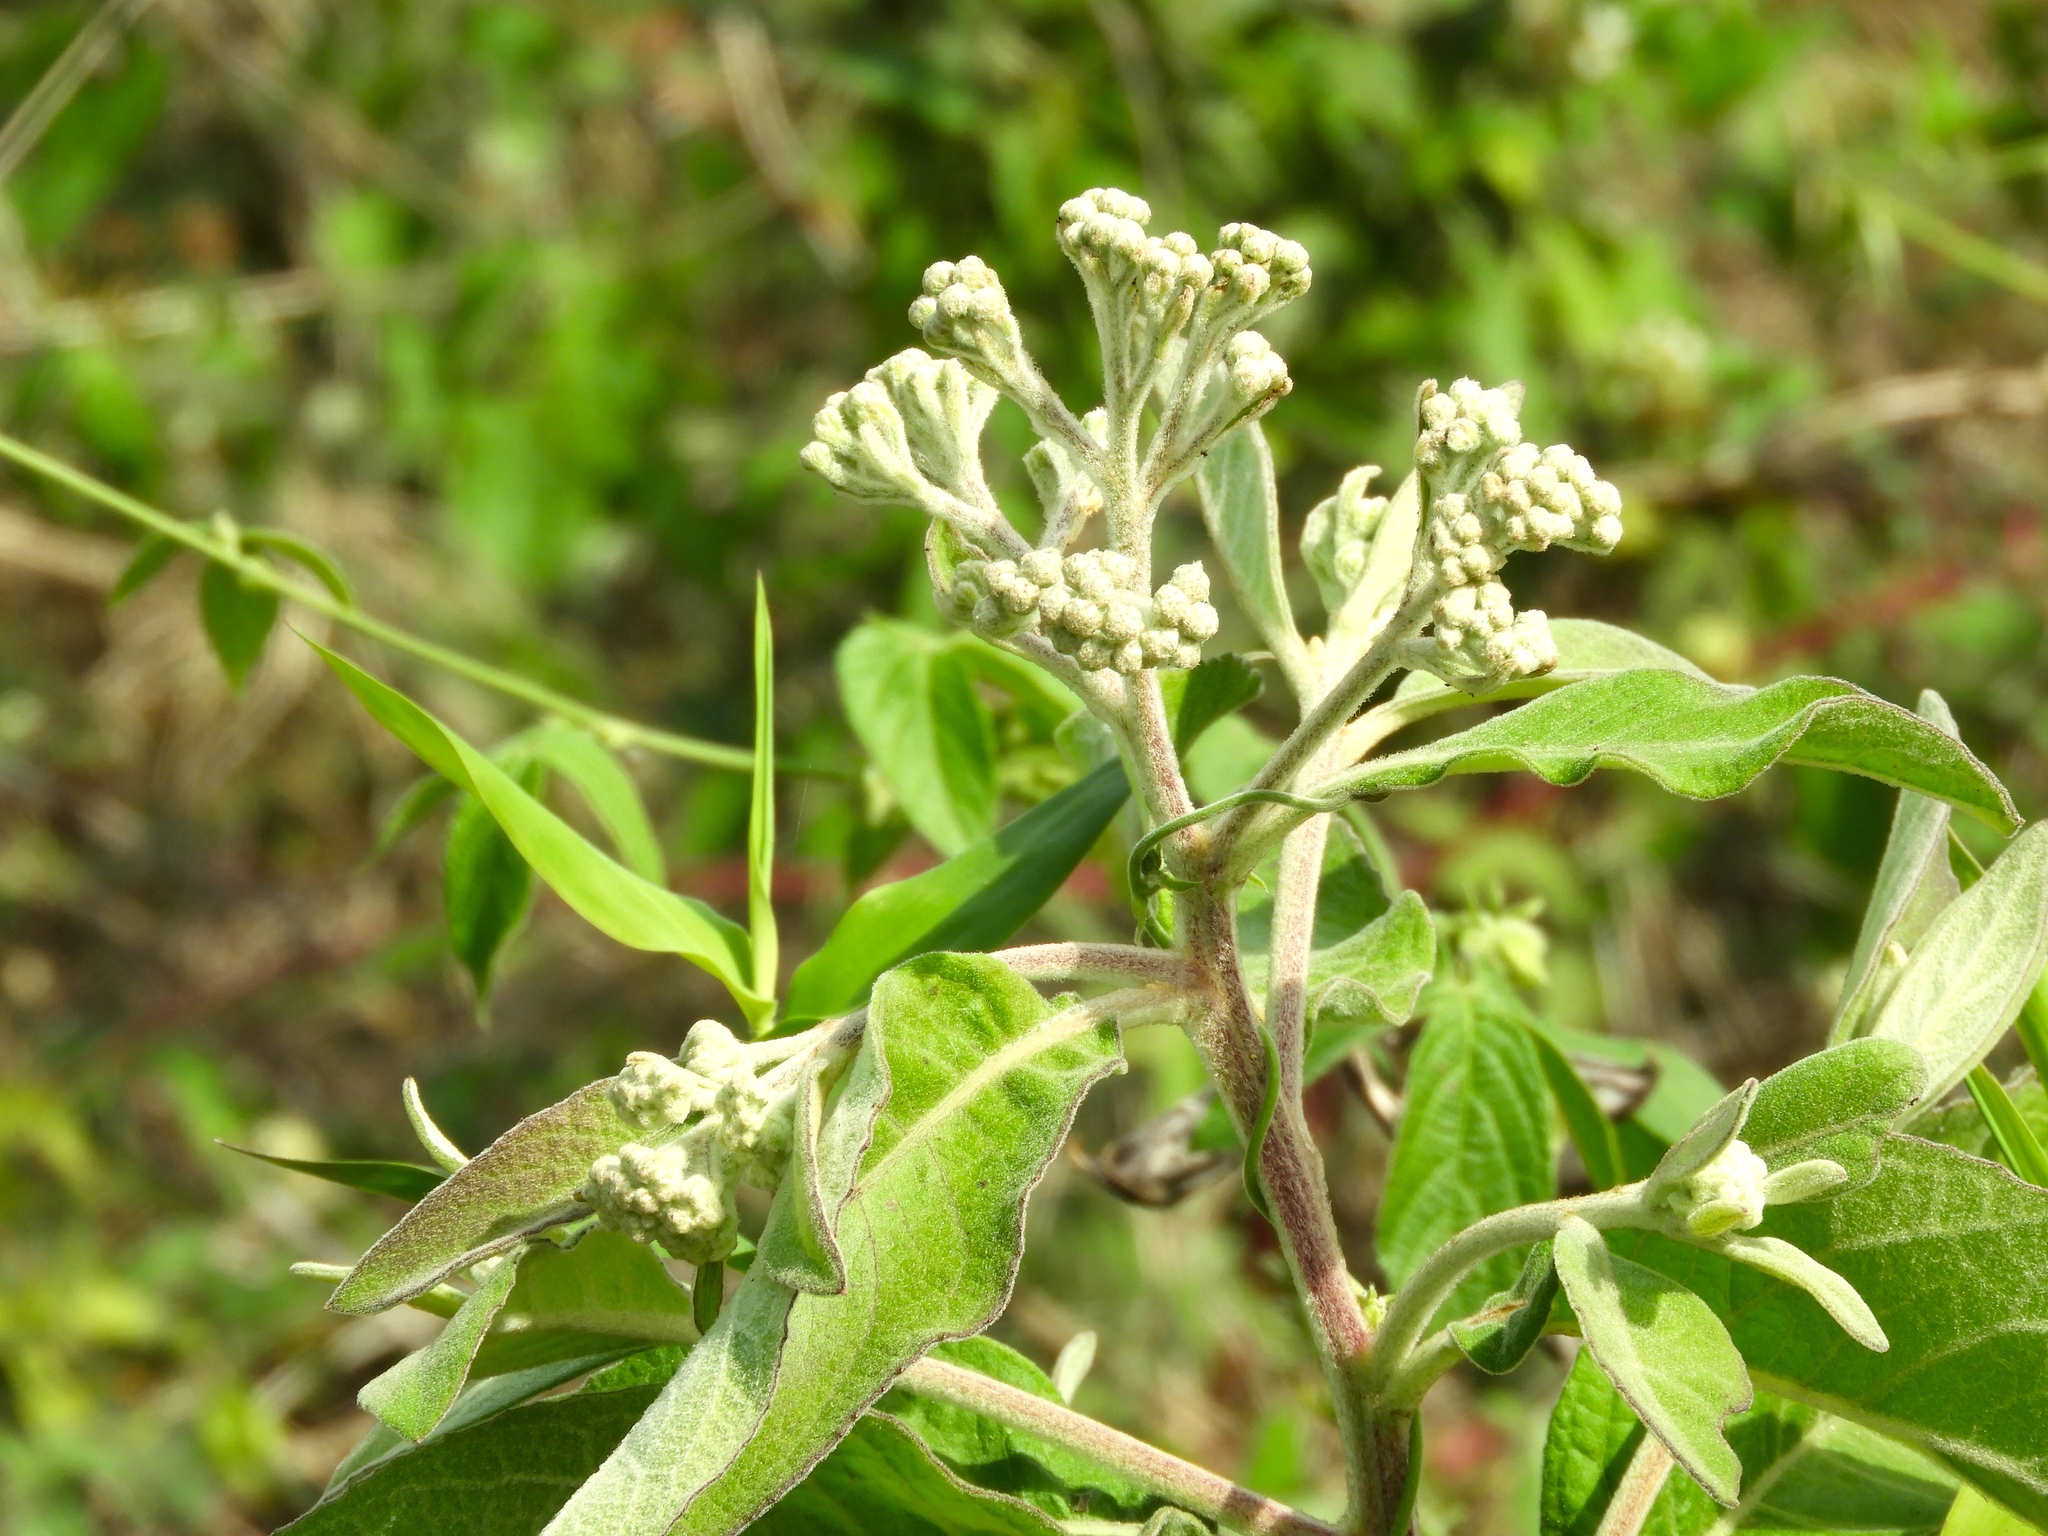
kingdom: Plantae
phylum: Tracheophyta
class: Magnoliopsida
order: Asterales
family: Asteraceae
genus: Pluchea
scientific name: Pluchea carolinensis
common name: Marsh fleabane
